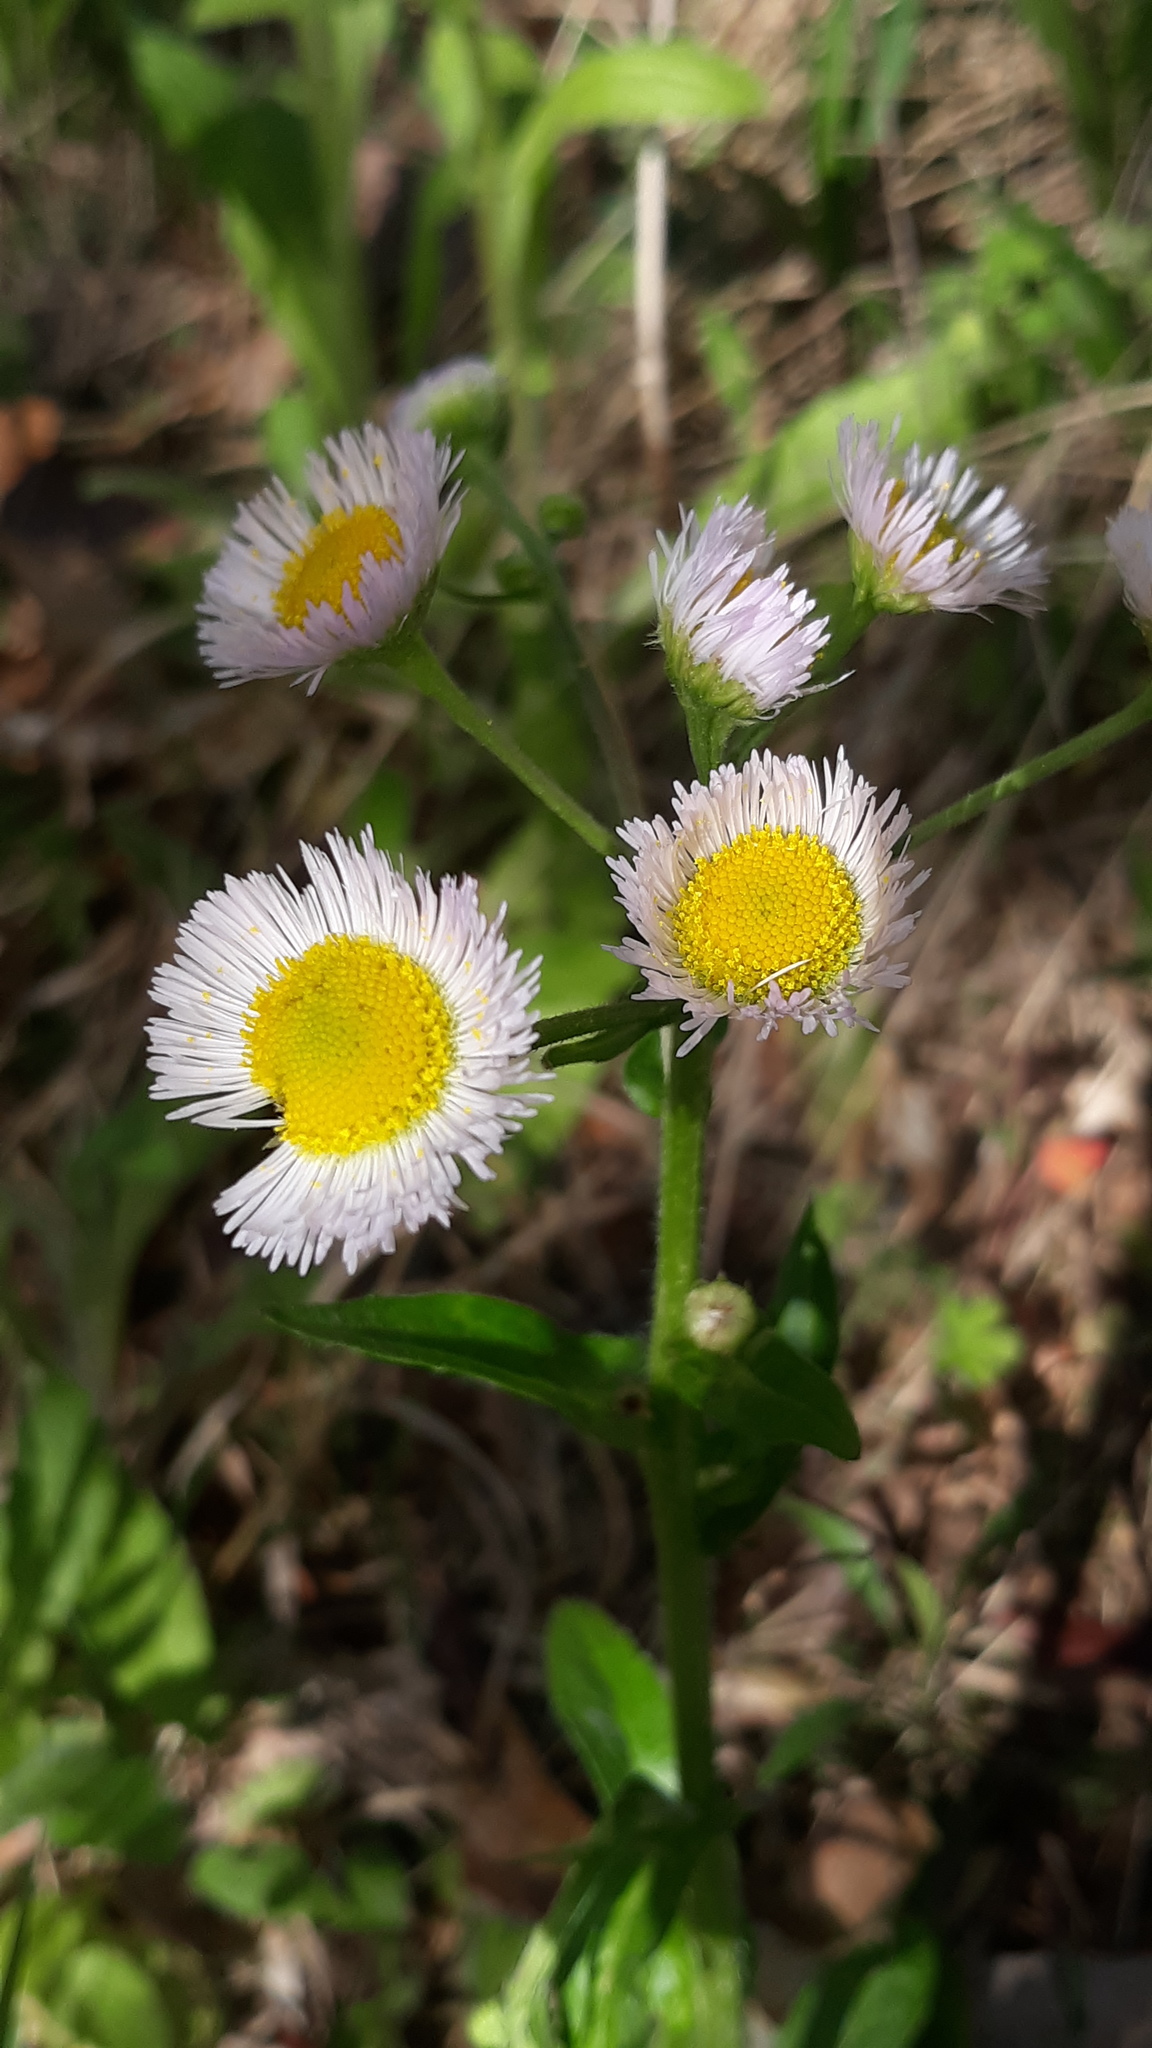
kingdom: Plantae
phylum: Tracheophyta
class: Magnoliopsida
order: Asterales
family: Asteraceae
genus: Erigeron
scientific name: Erigeron philadelphicus
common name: Robin's-plantain
